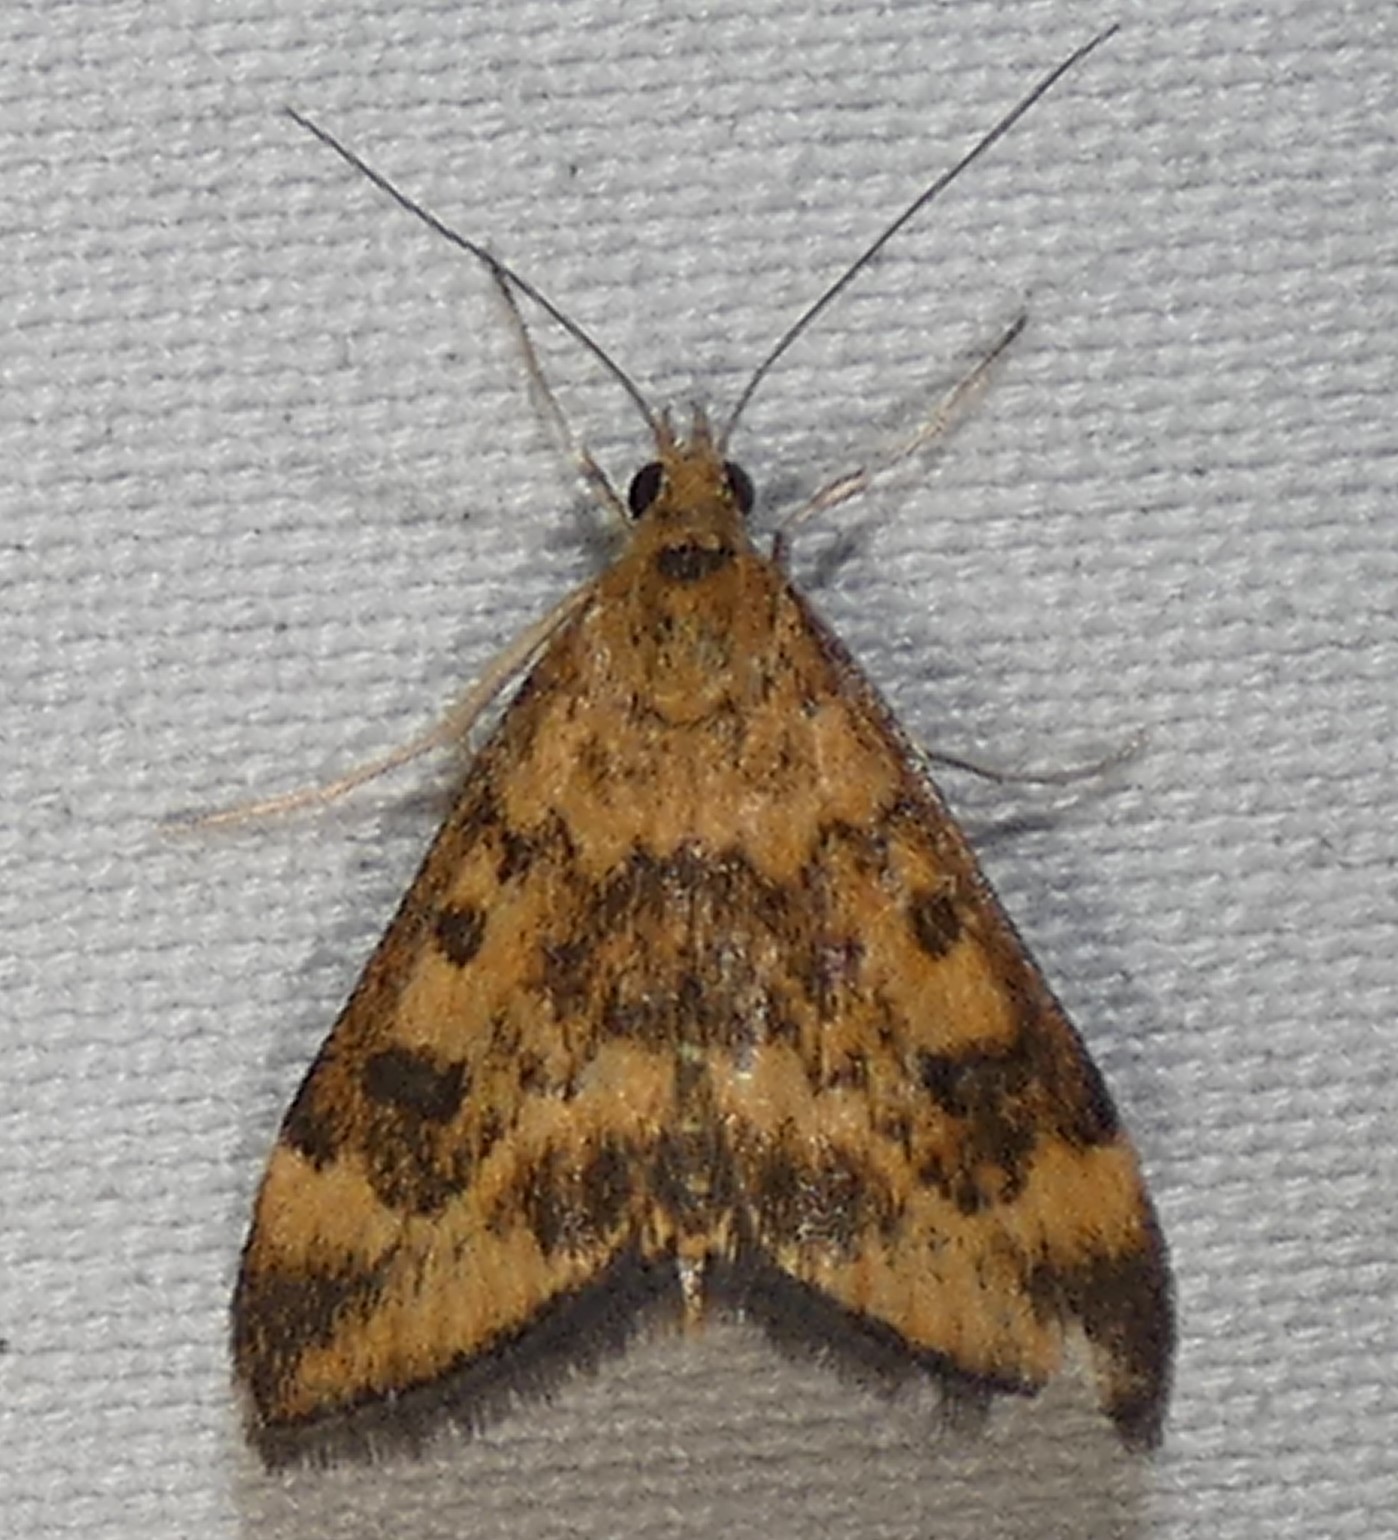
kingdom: Animalia
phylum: Arthropoda
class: Insecta
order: Lepidoptera
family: Crambidae
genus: Pyrausta
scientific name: Pyrausta subsequalis
